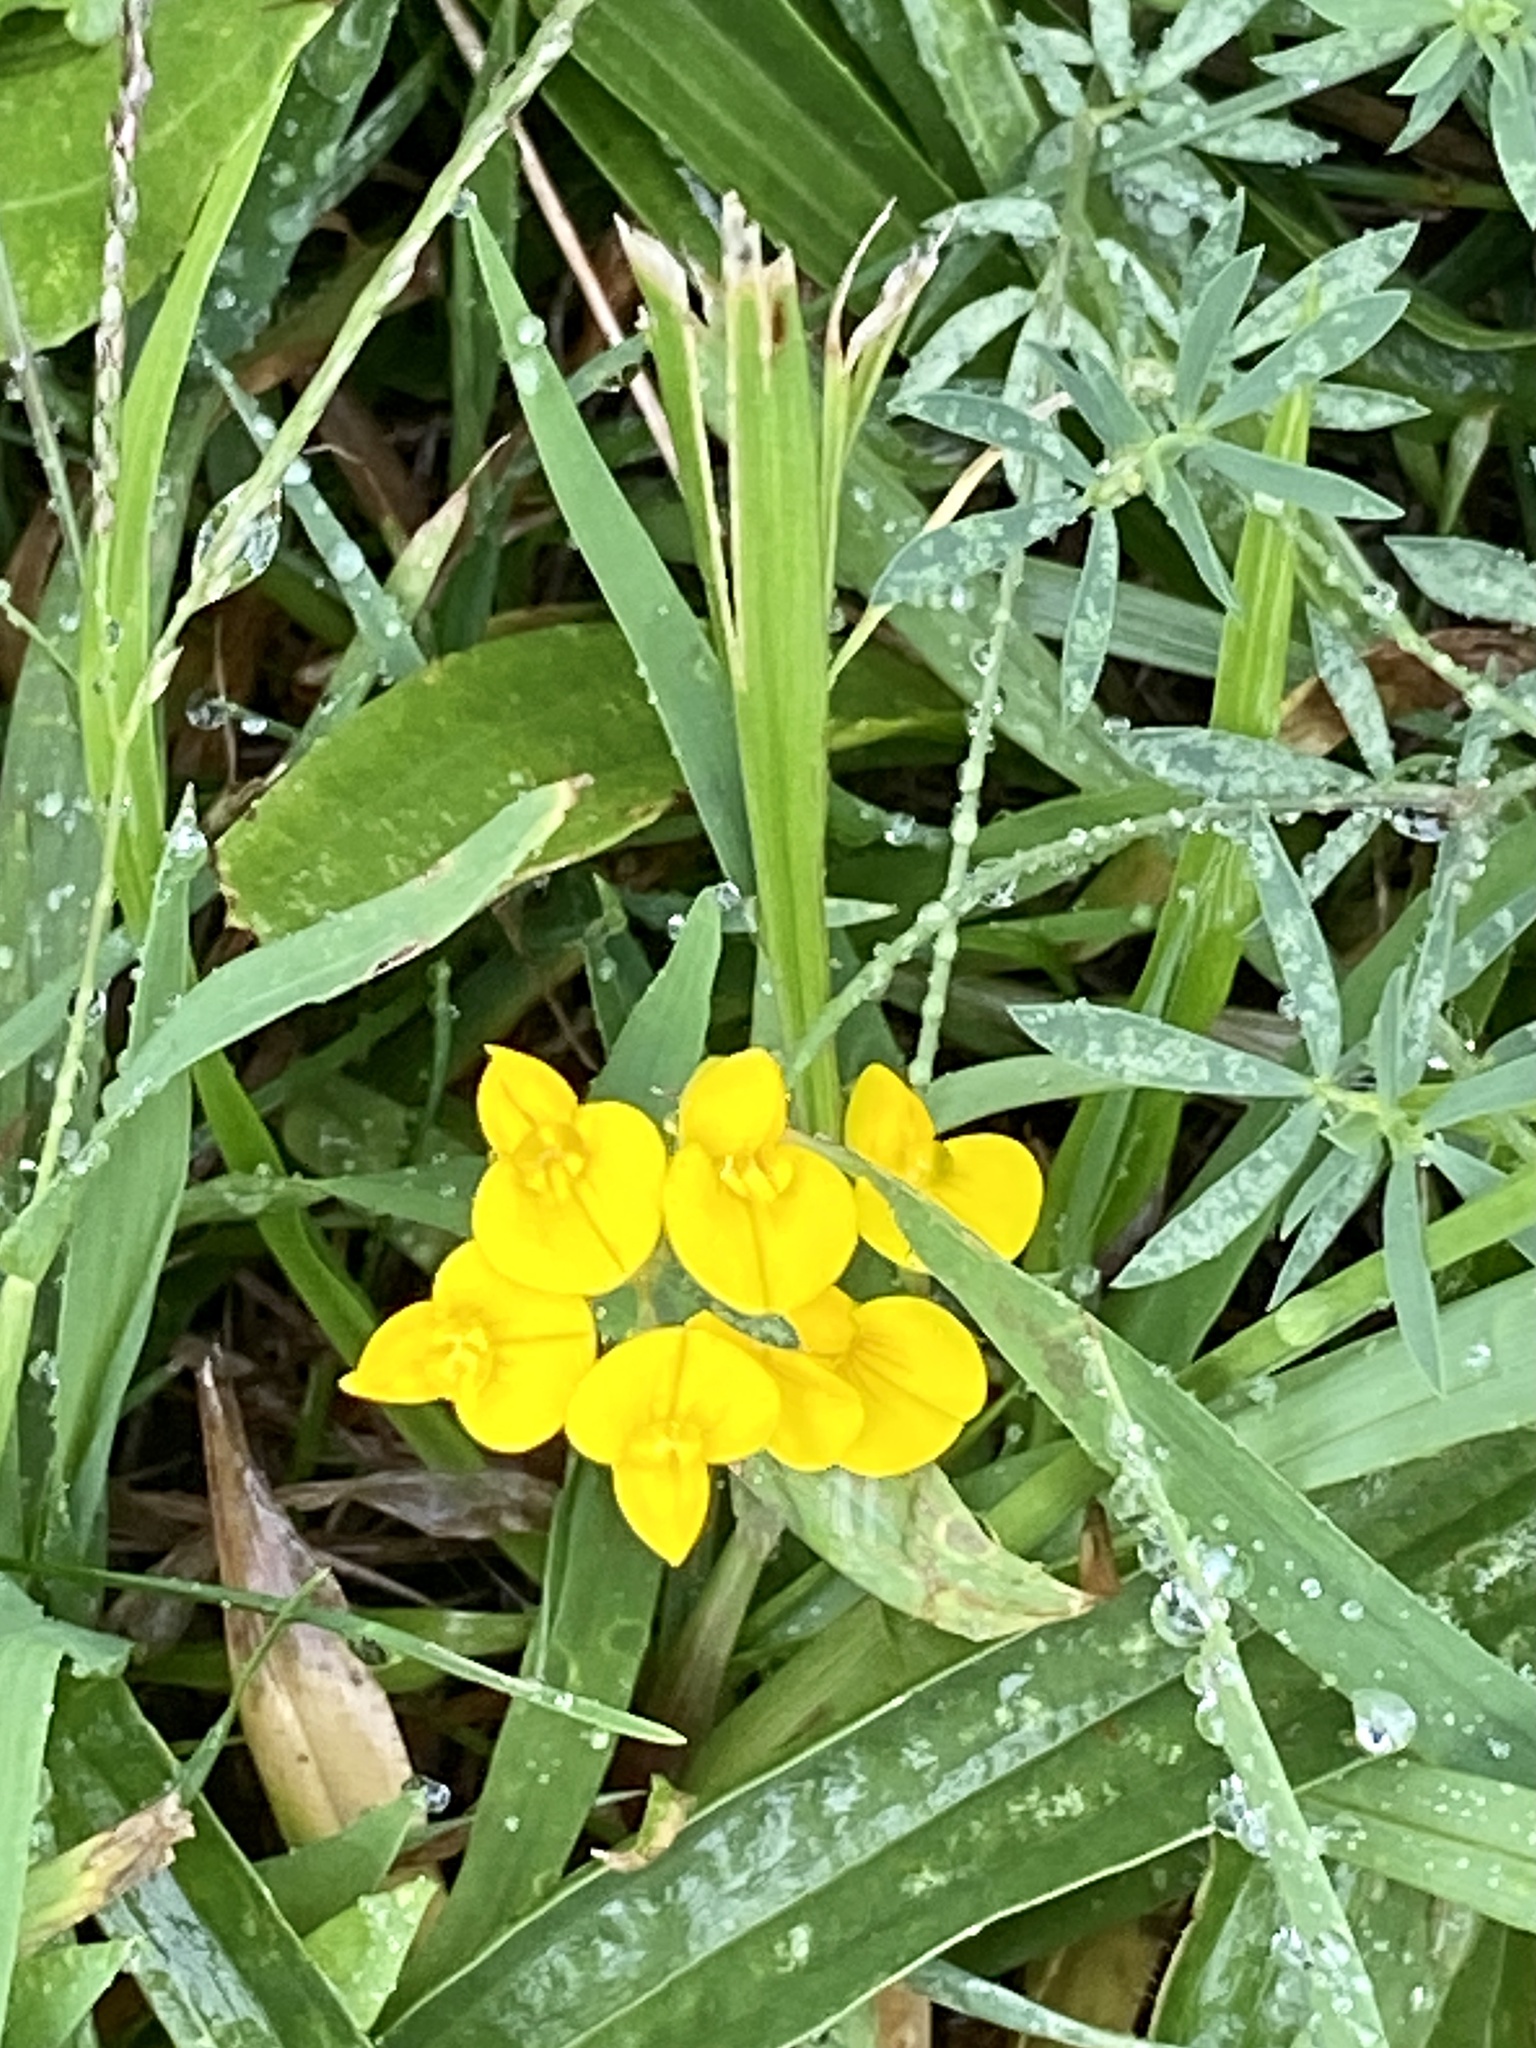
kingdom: Plantae
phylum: Tracheophyta
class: Magnoliopsida
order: Fabales
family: Fabaceae
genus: Lotus
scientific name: Lotus tenuis
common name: Narrow-leaved bird's-foot-trefoil
